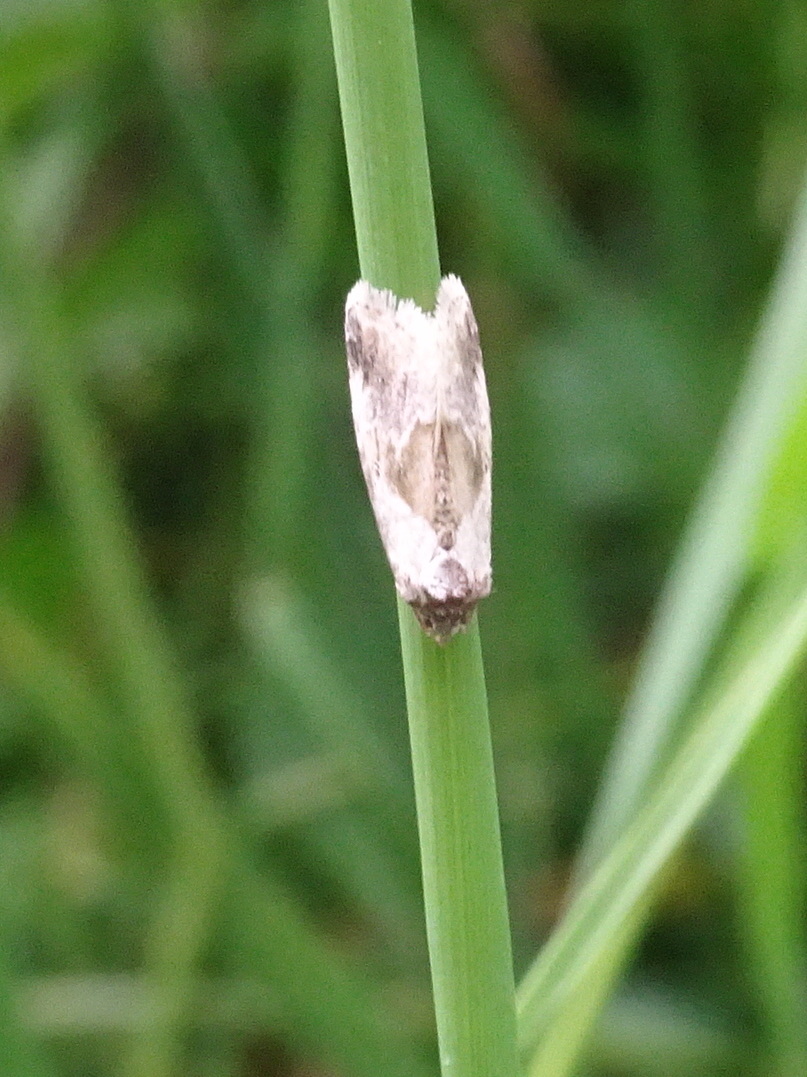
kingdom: Animalia
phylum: Arthropoda
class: Insecta
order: Lepidoptera
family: Noctuidae
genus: Maliattha
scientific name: Maliattha synochitis
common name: Black-dotted glyph
